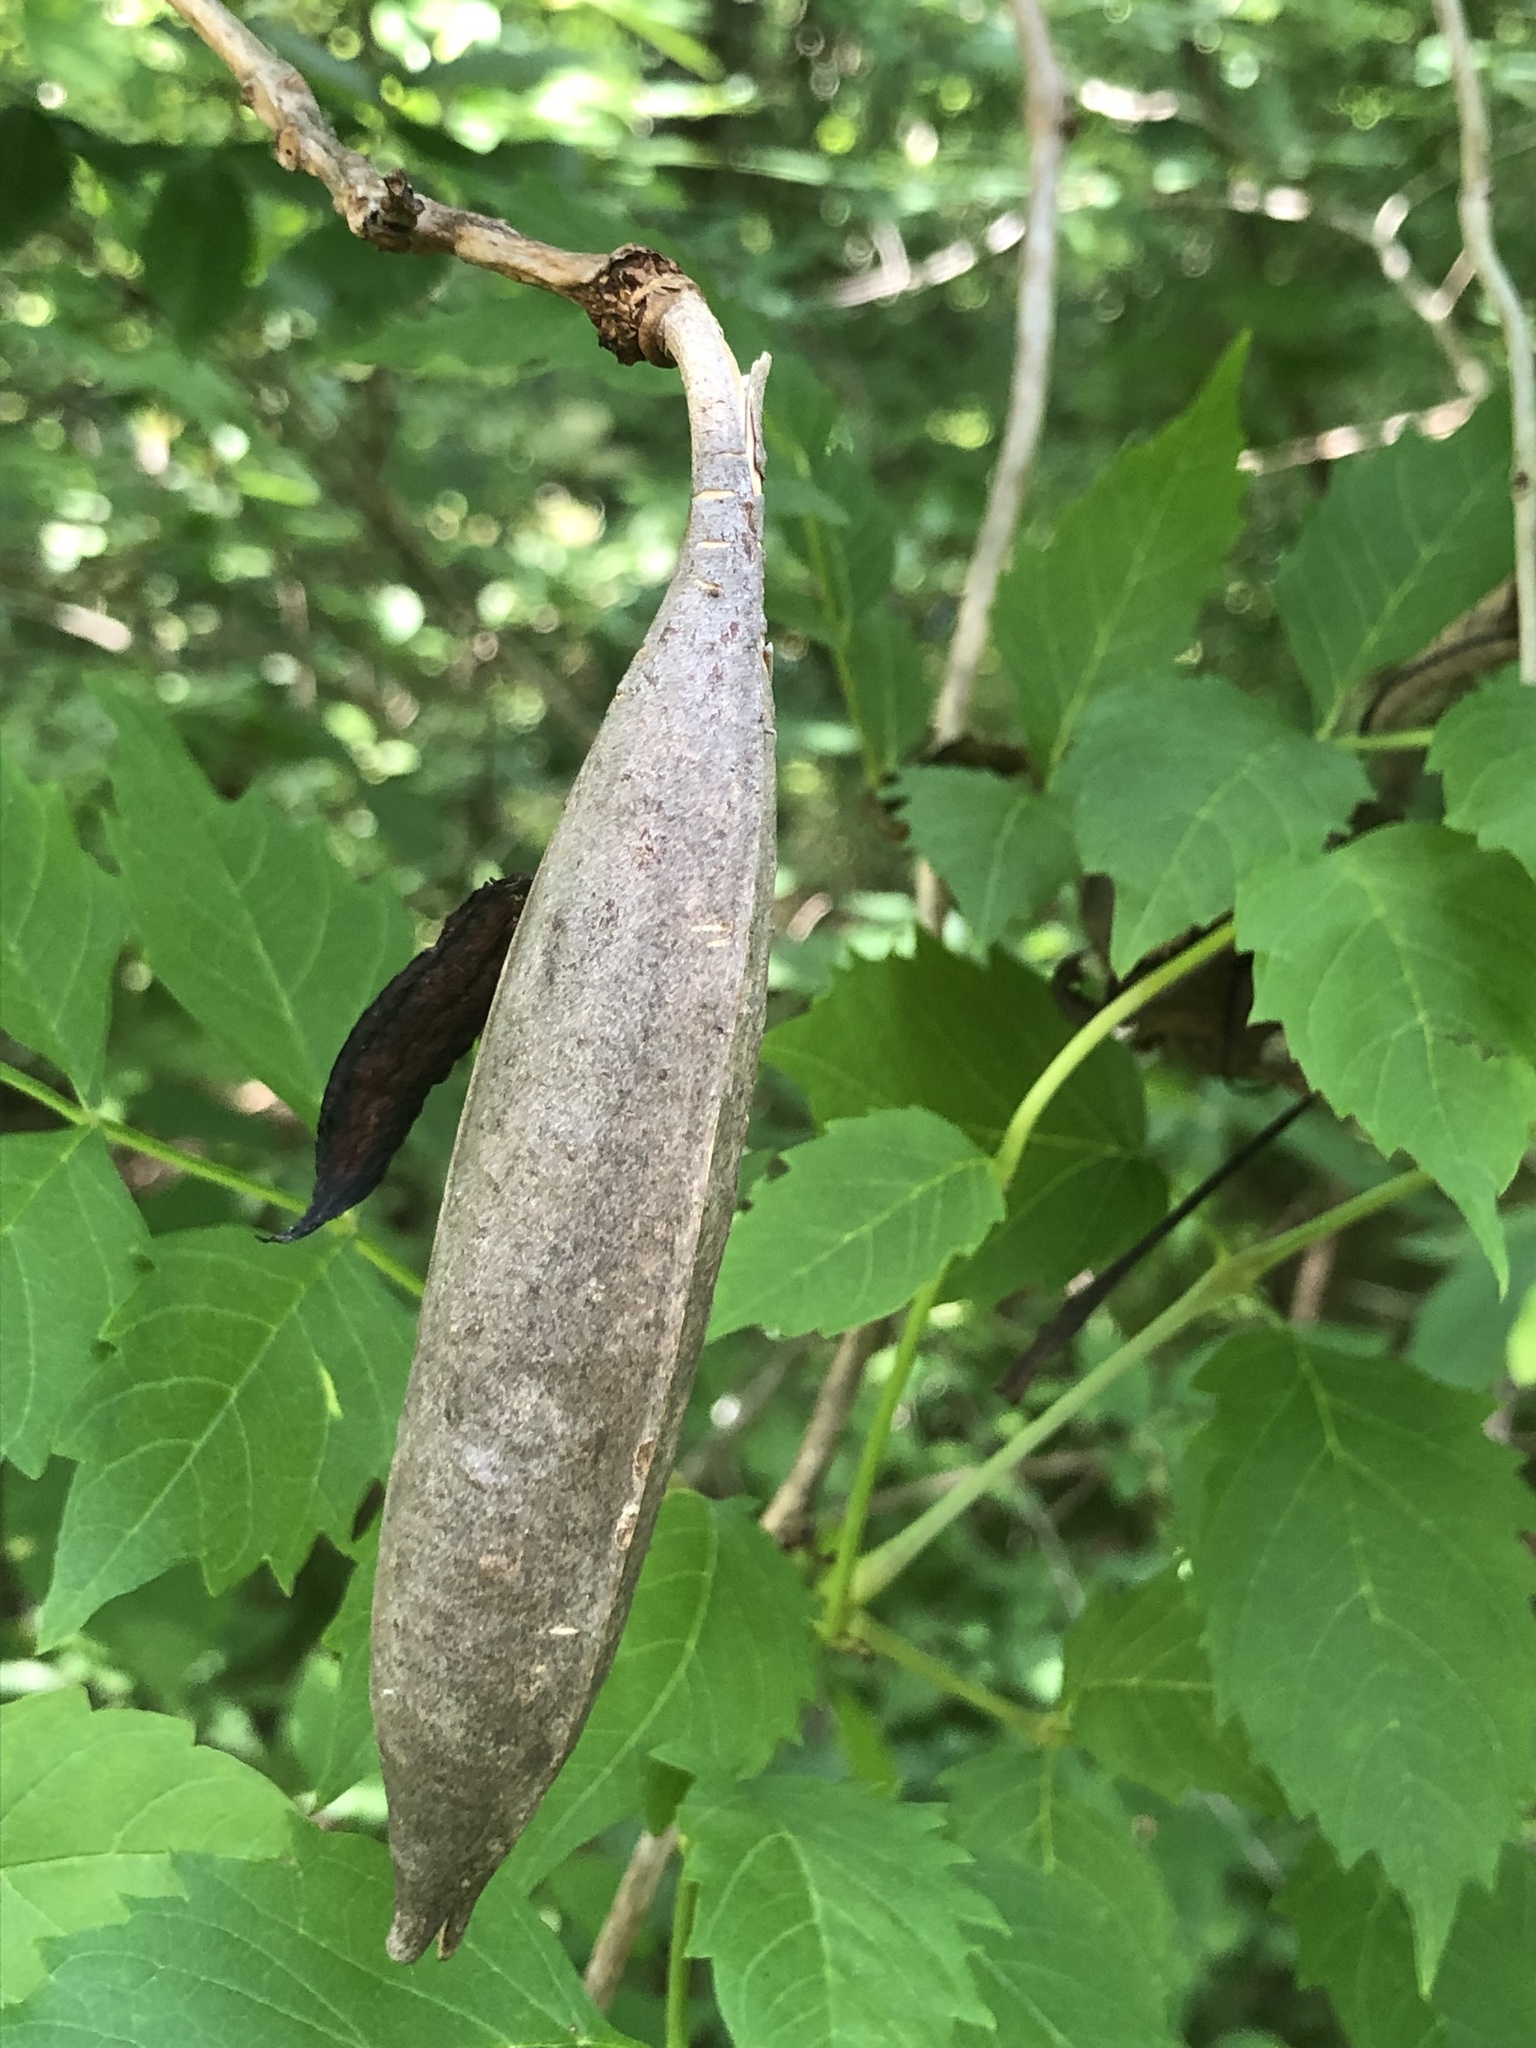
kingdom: Plantae
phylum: Tracheophyta
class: Magnoliopsida
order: Lamiales
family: Bignoniaceae
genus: Campsis
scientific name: Campsis radicans
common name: Trumpet-creeper
